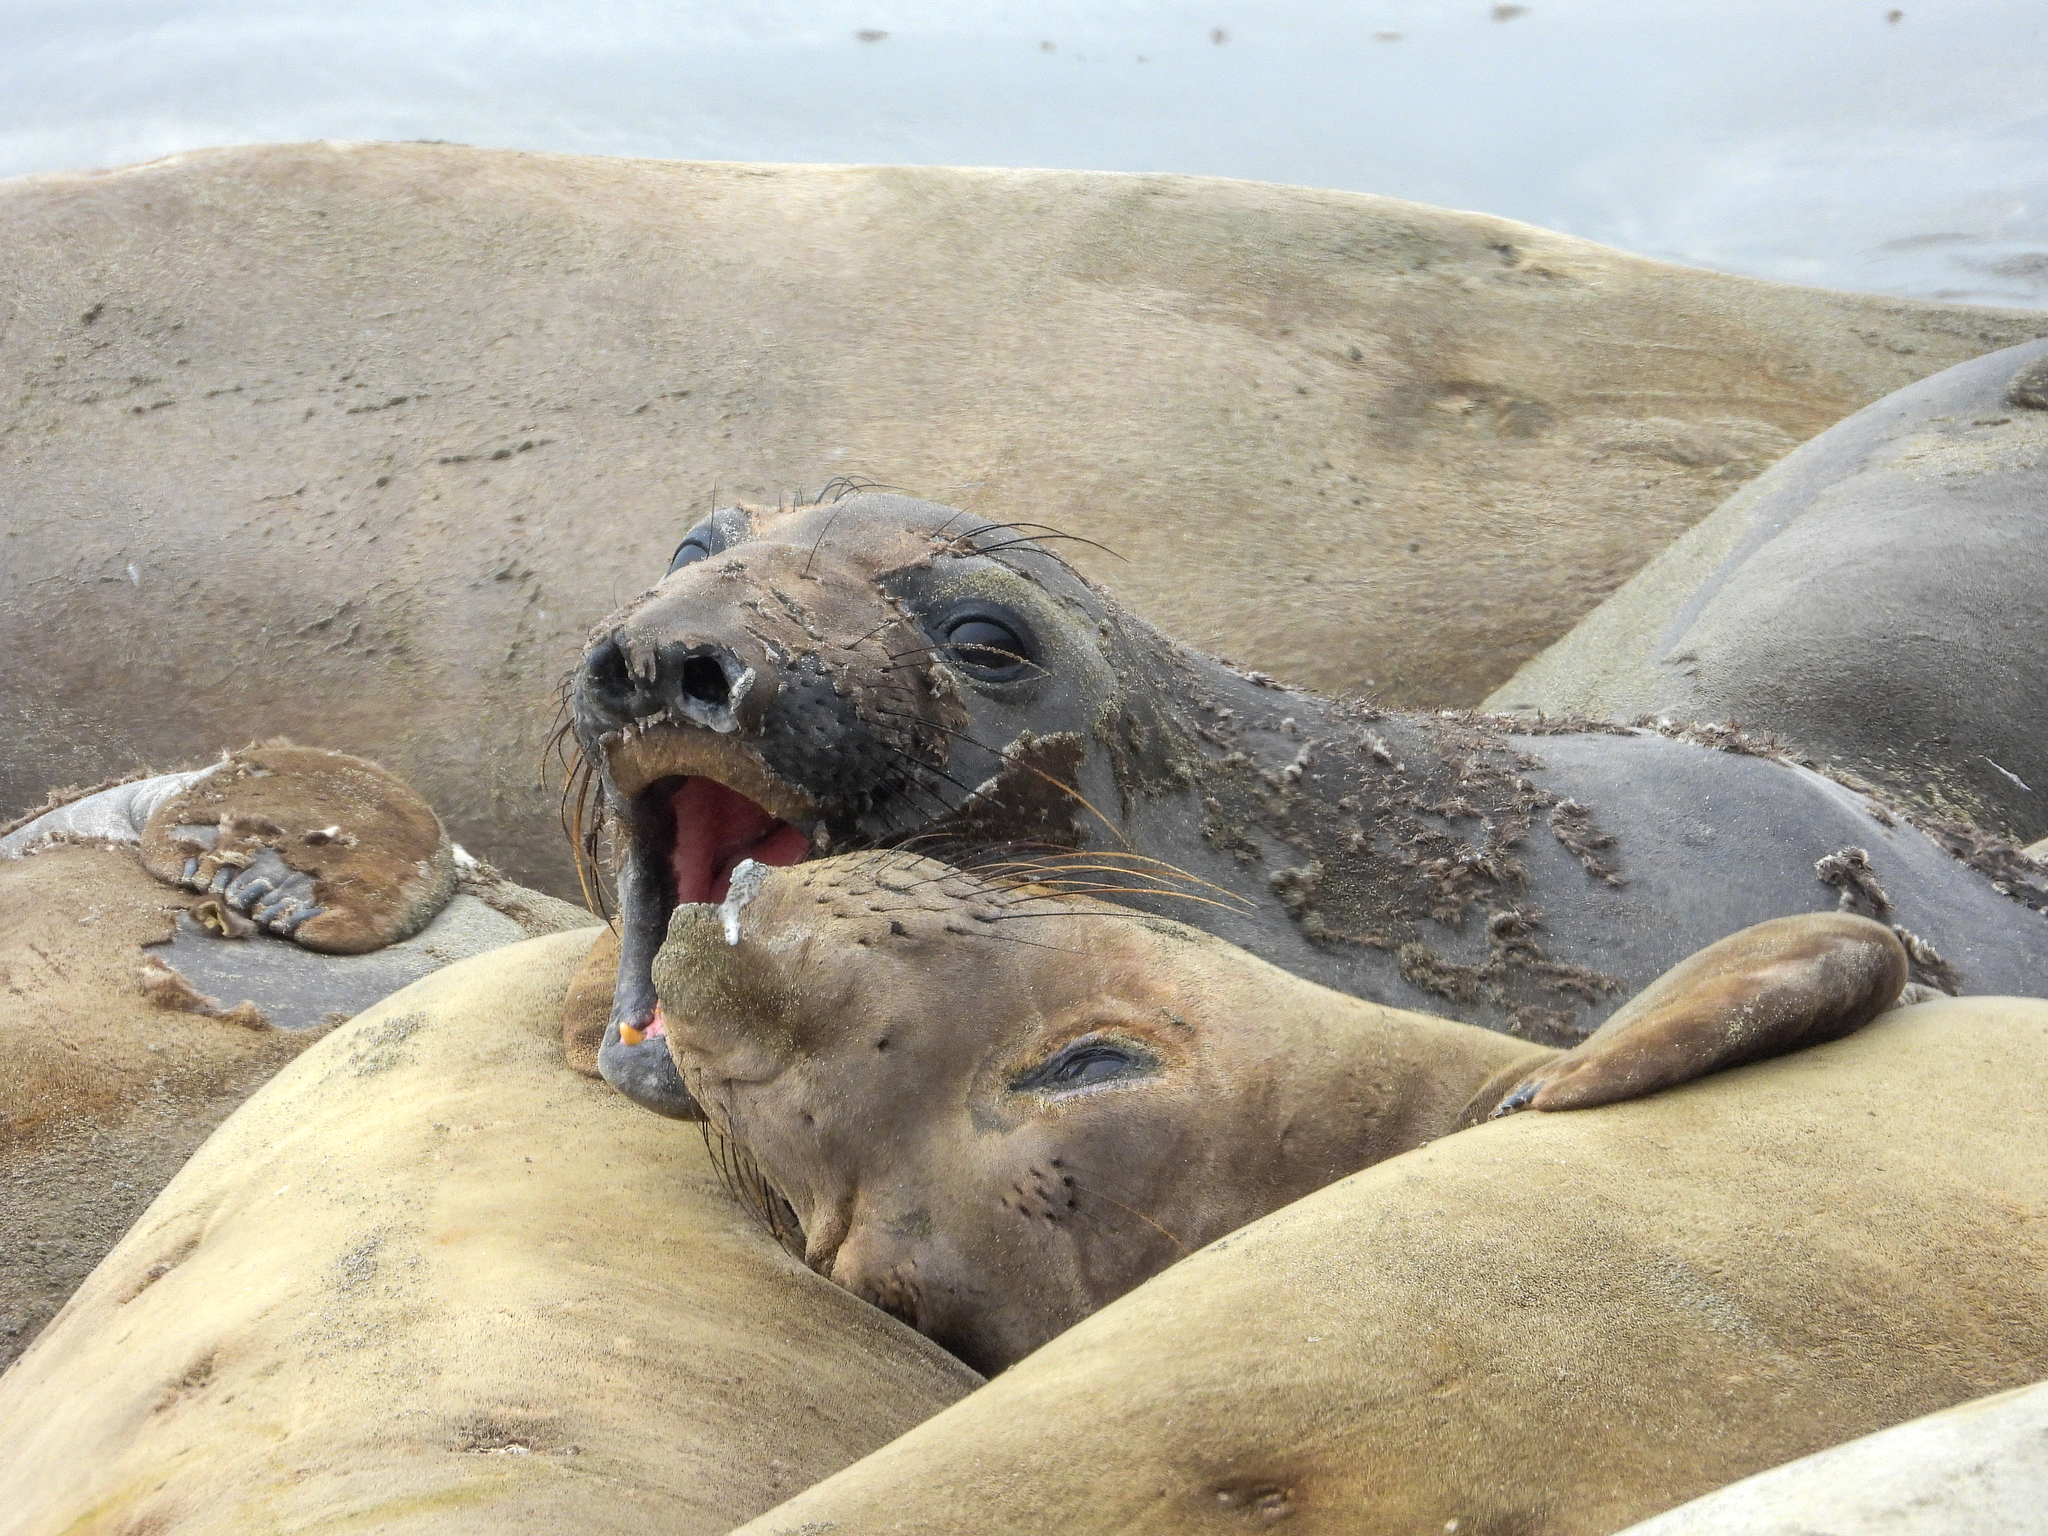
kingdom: Animalia
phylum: Chordata
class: Mammalia
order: Carnivora
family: Phocidae
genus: Mirounga
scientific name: Mirounga angustirostris
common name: Northern elephant seal
